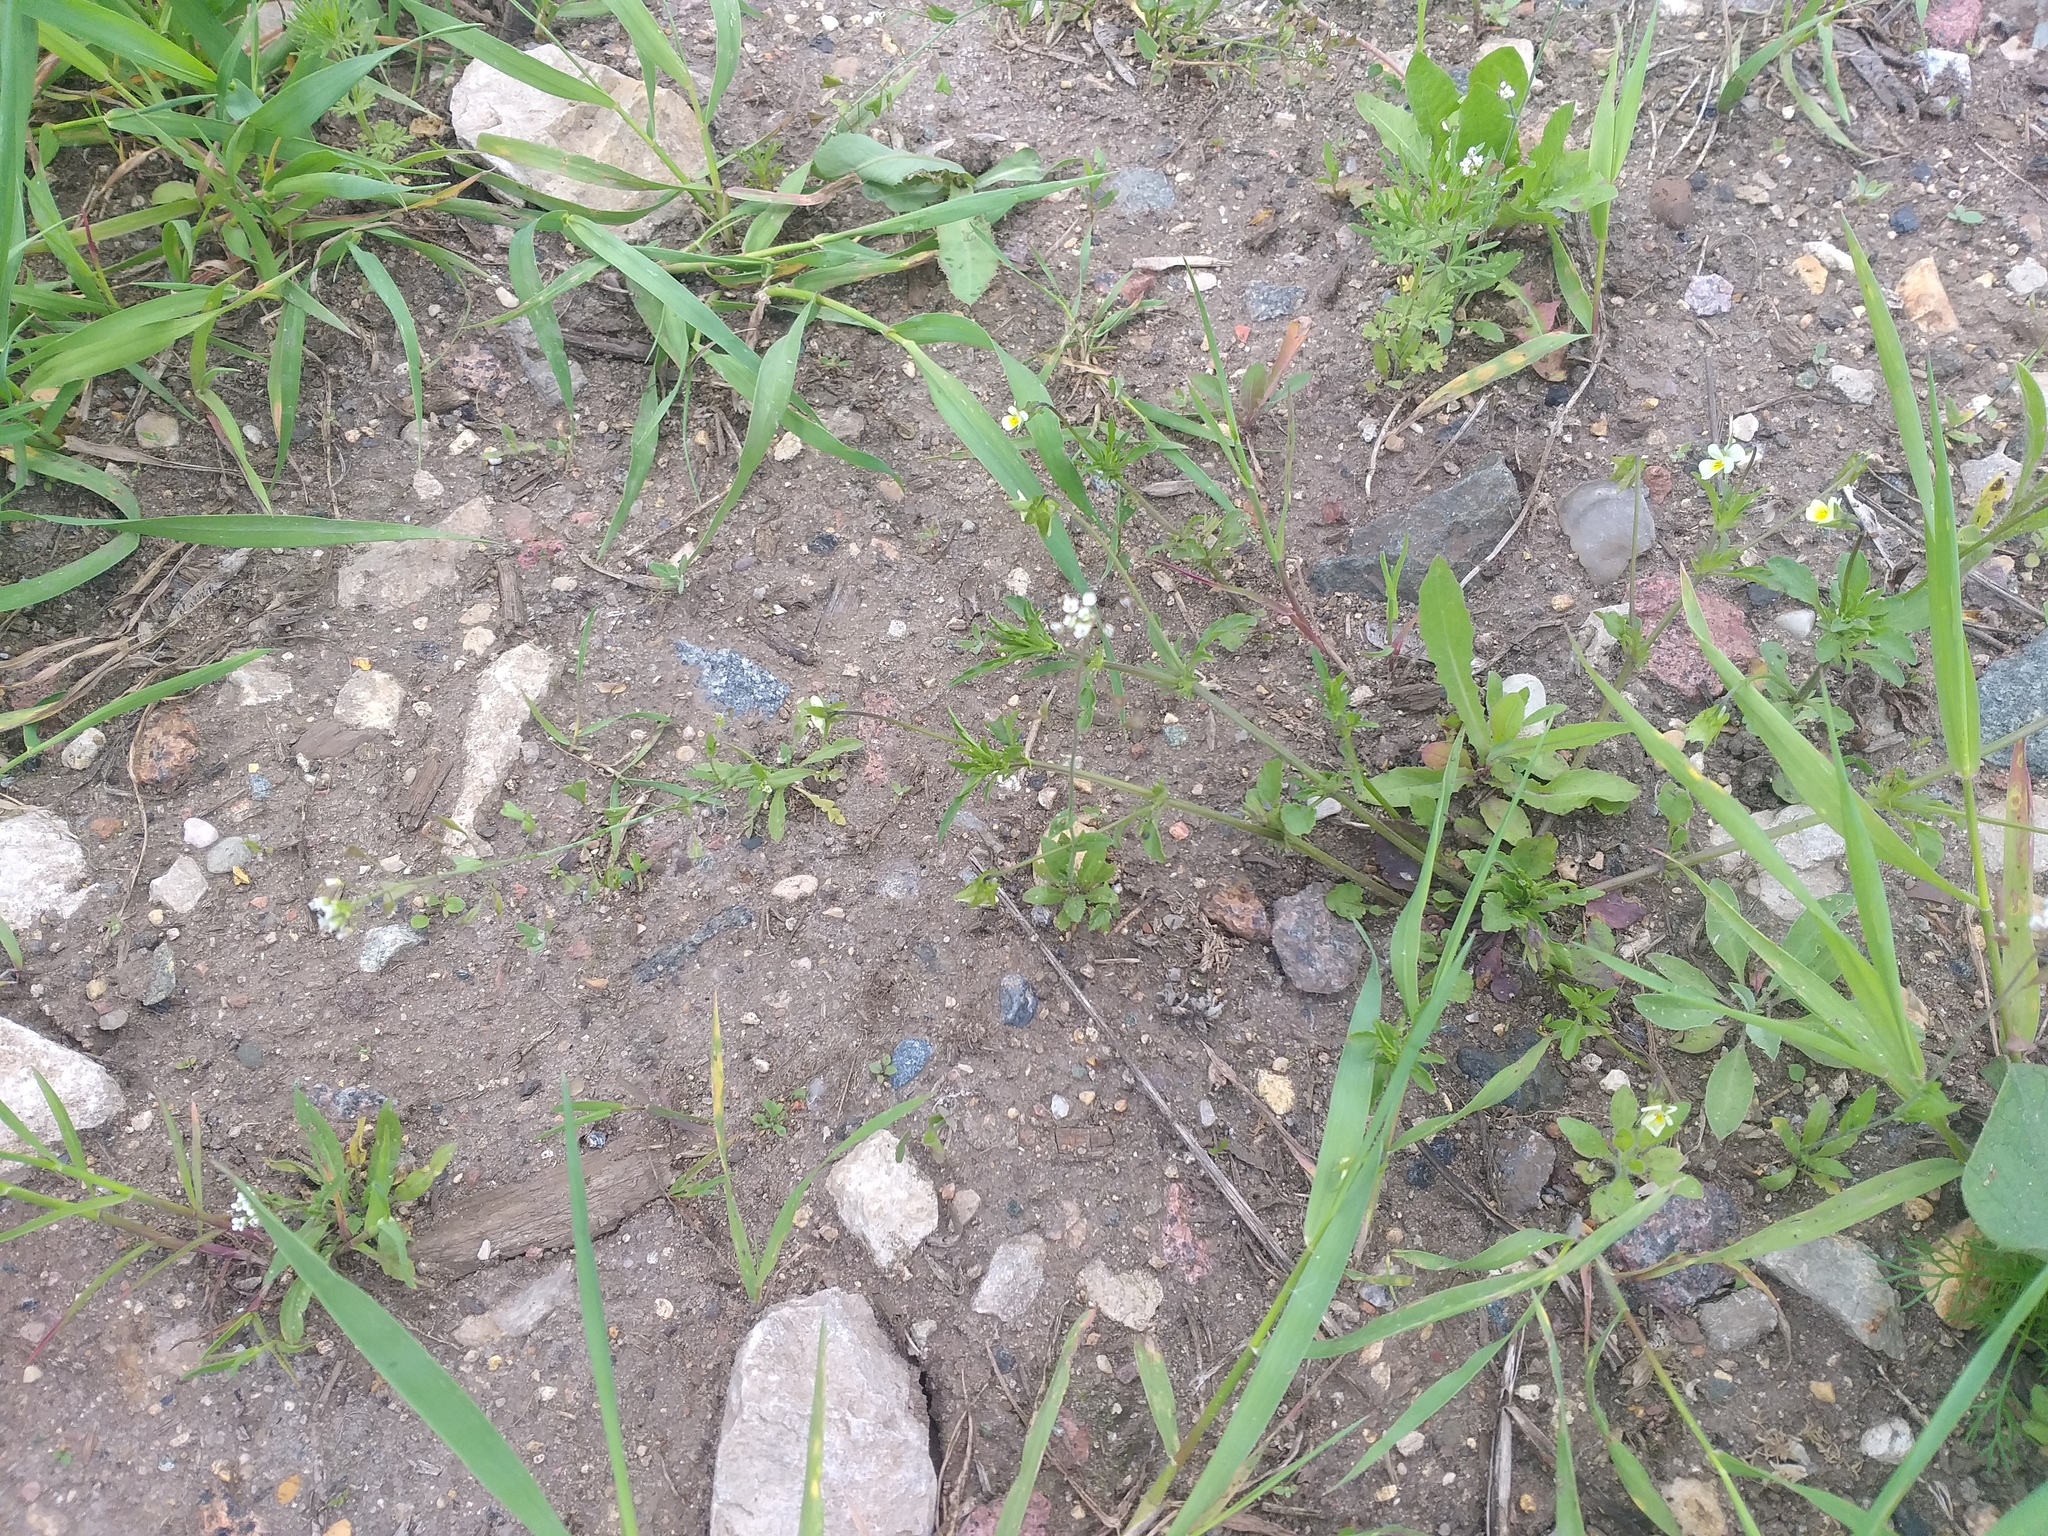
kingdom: Plantae
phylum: Tracheophyta
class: Magnoliopsida
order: Malpighiales
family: Violaceae
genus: Viola
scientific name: Viola arvensis
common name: Field pansy
